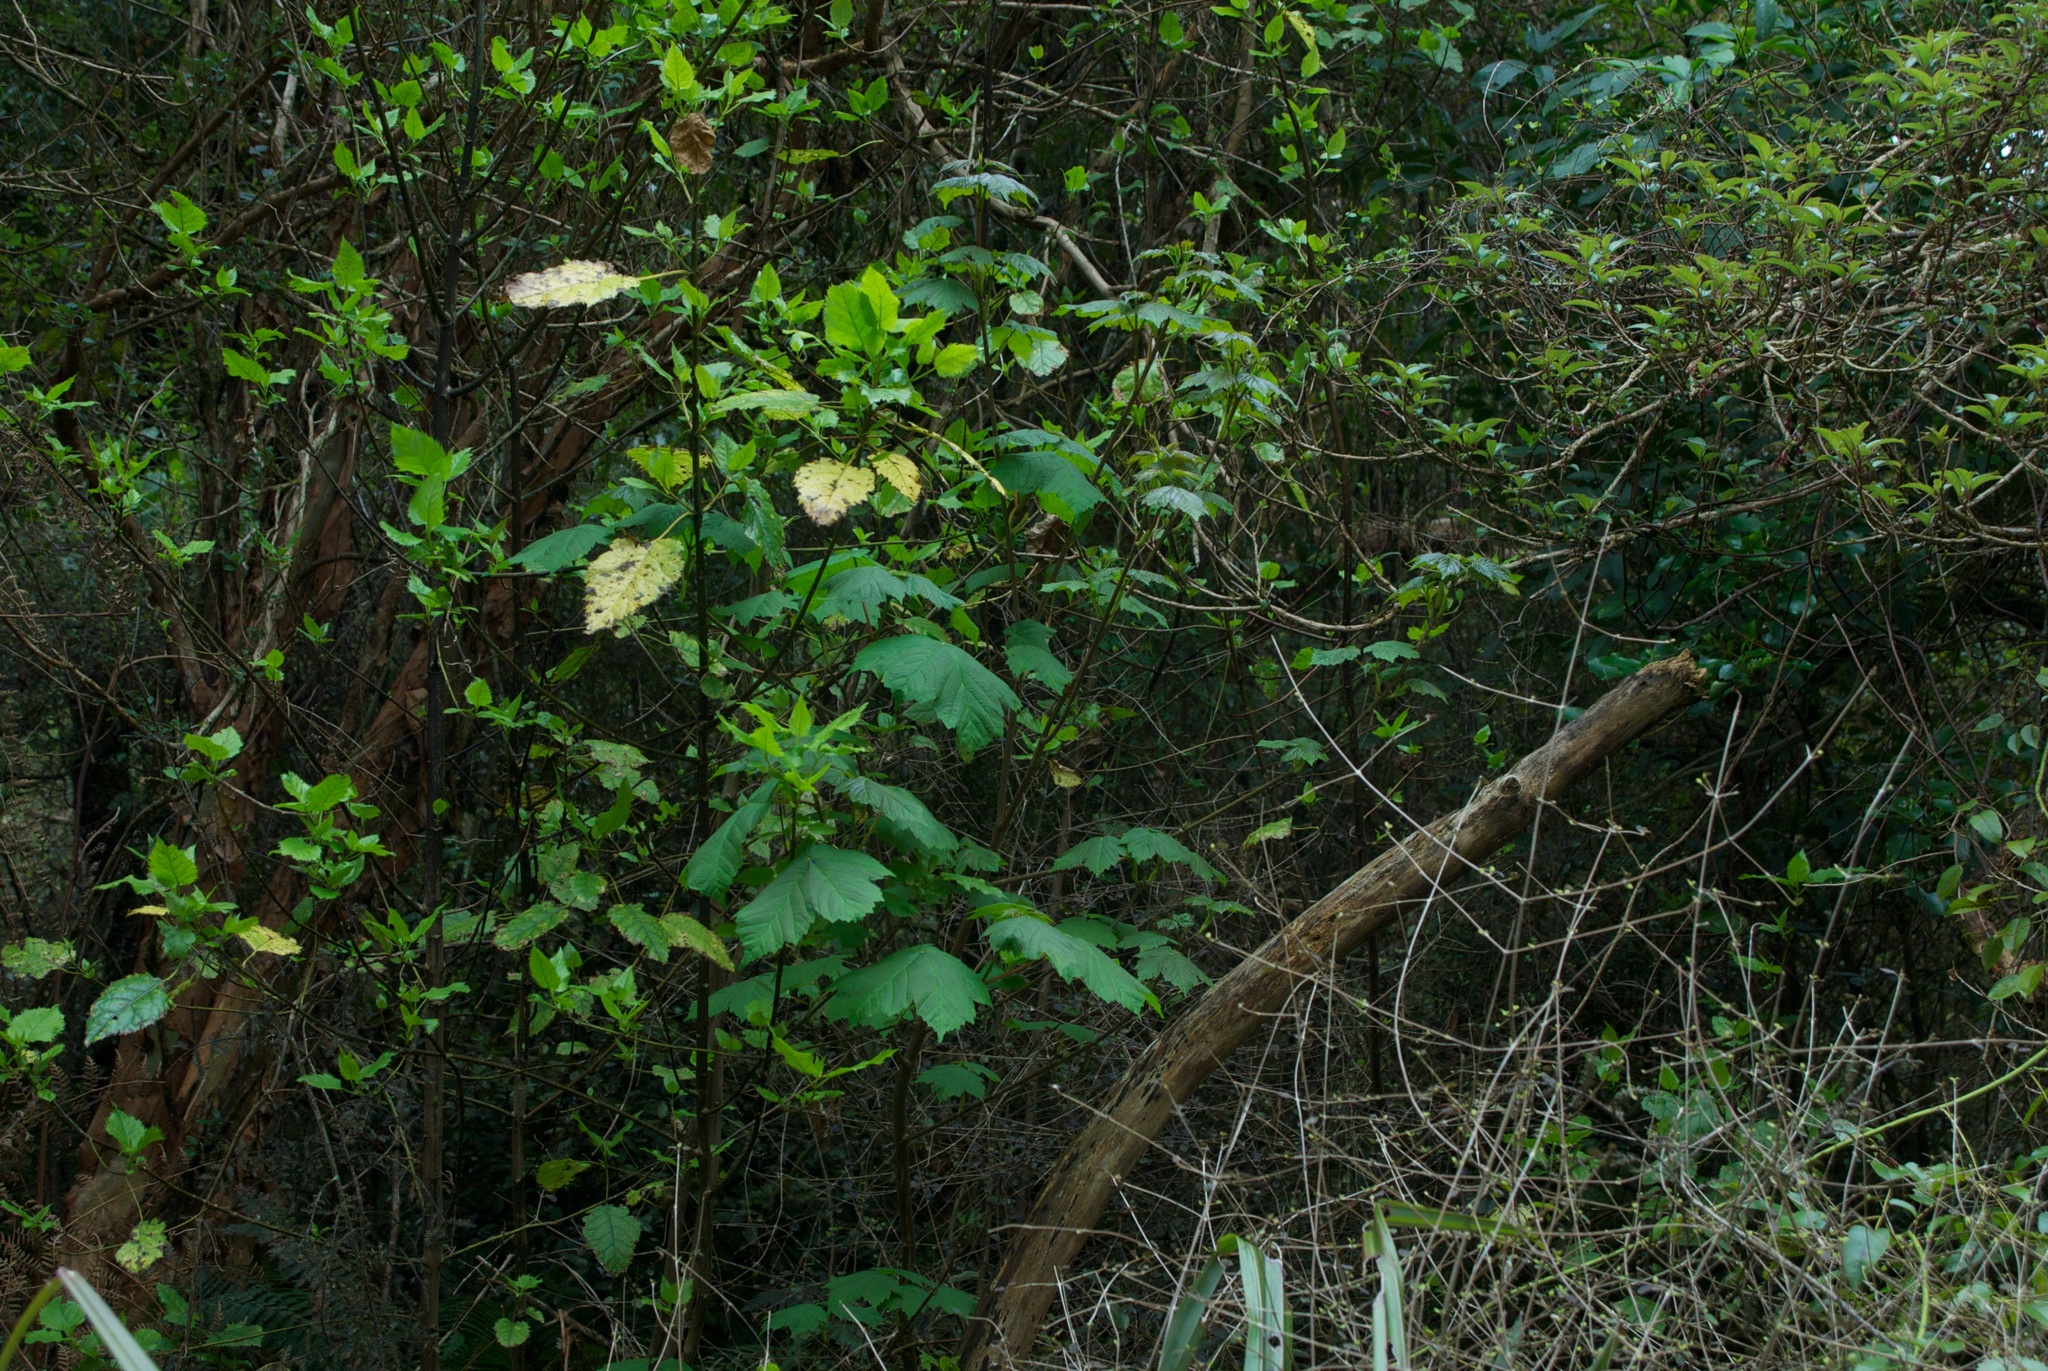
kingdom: Plantae
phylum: Tracheophyta
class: Magnoliopsida
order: Sapindales
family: Sapindaceae
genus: Acer
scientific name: Acer pseudoplatanus
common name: Sycamore
